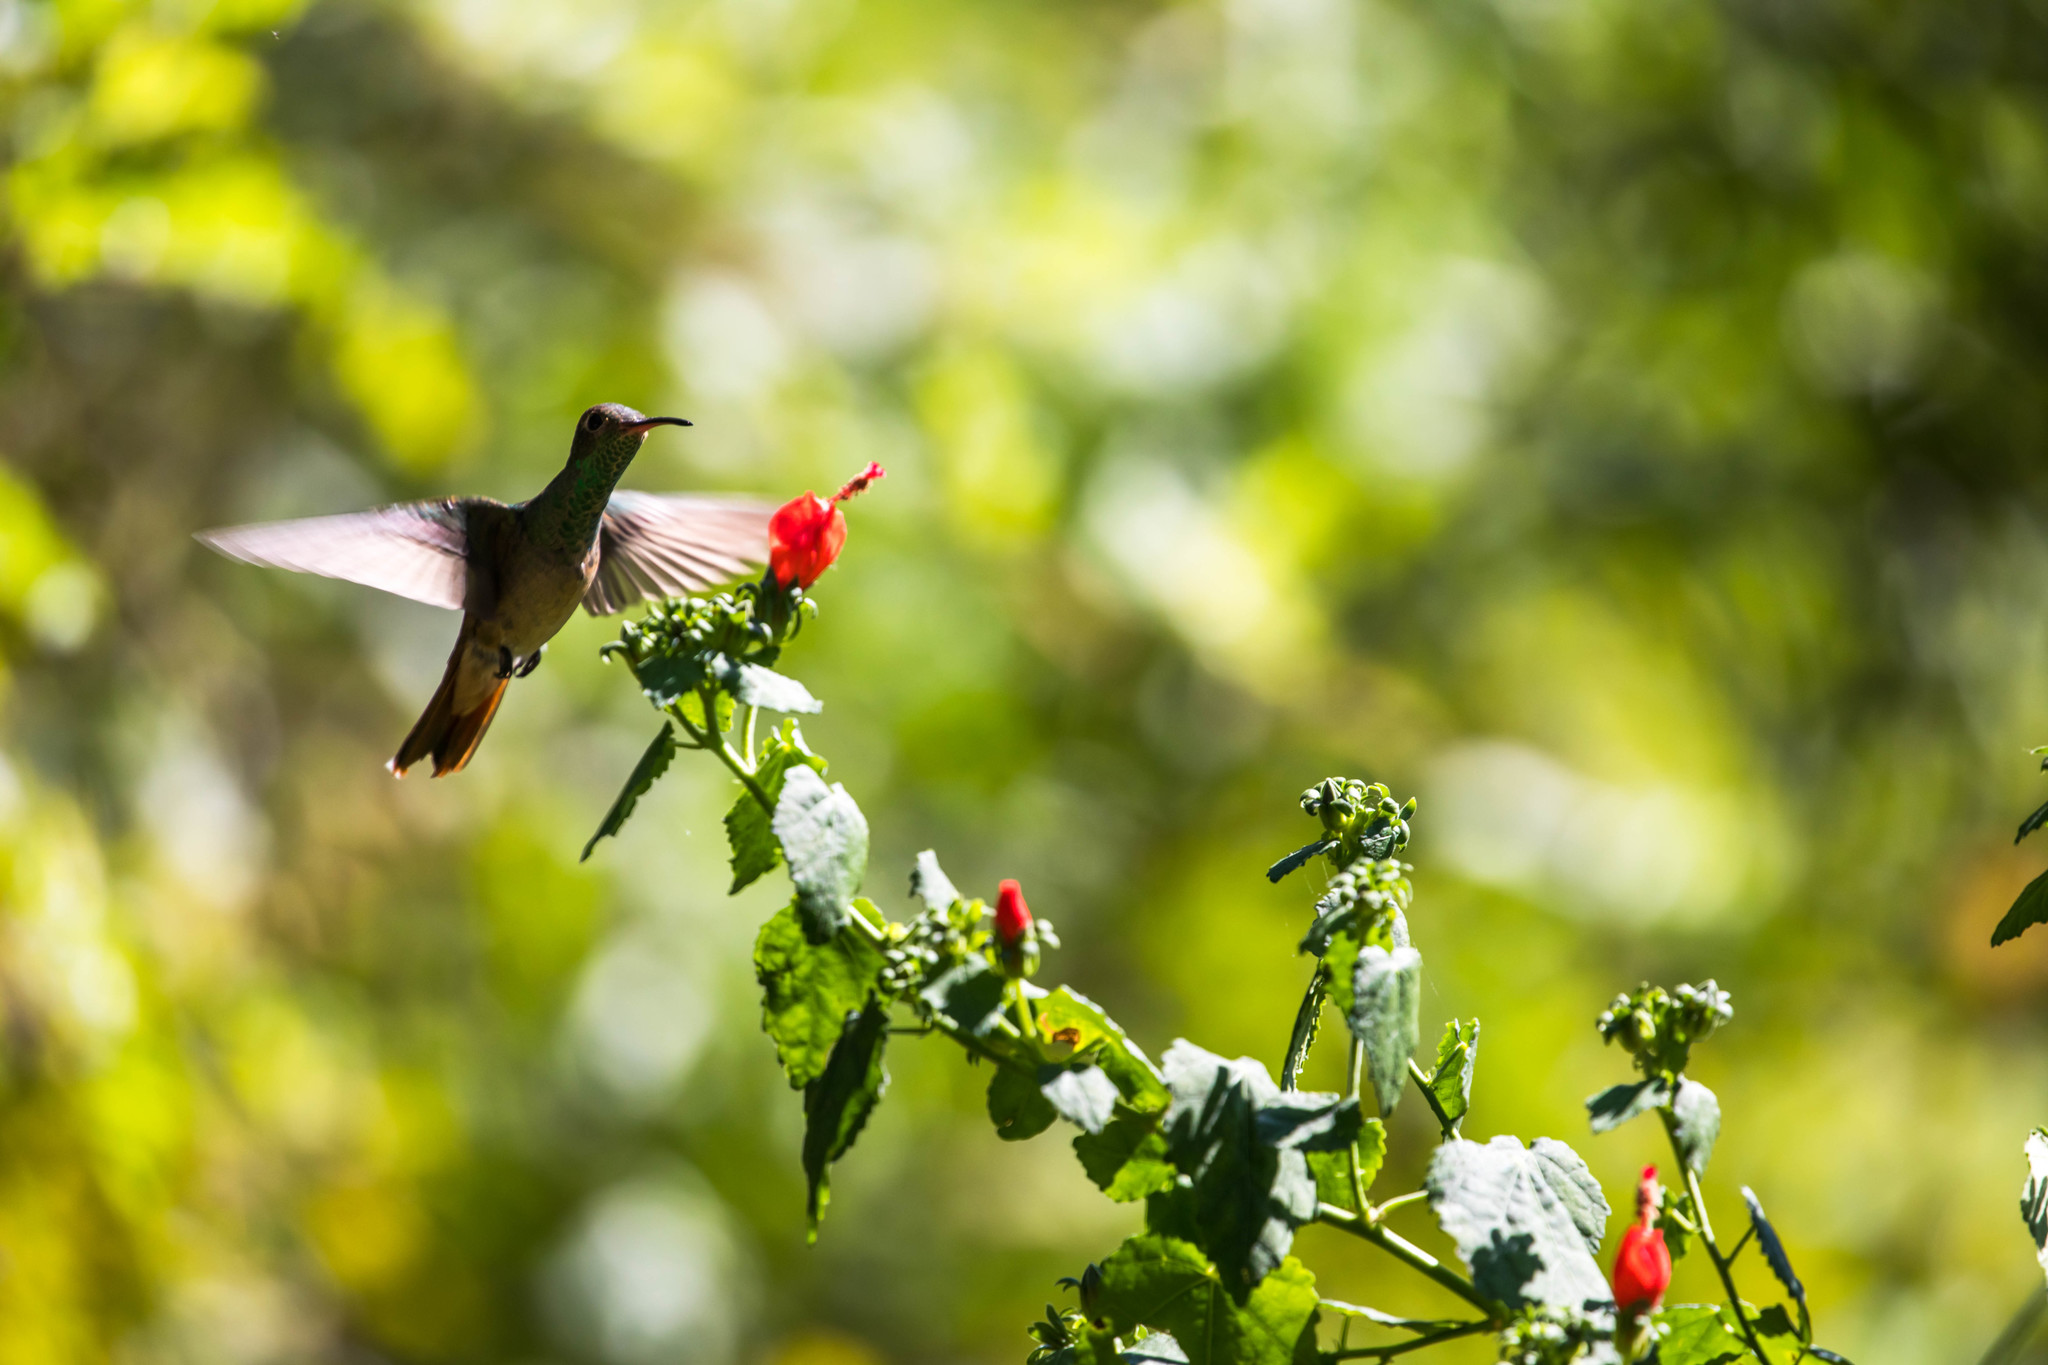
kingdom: Animalia
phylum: Chordata
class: Aves
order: Apodiformes
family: Trochilidae
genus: Amazilia
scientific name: Amazilia yucatanensis
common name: Buff-bellied hummingbird
